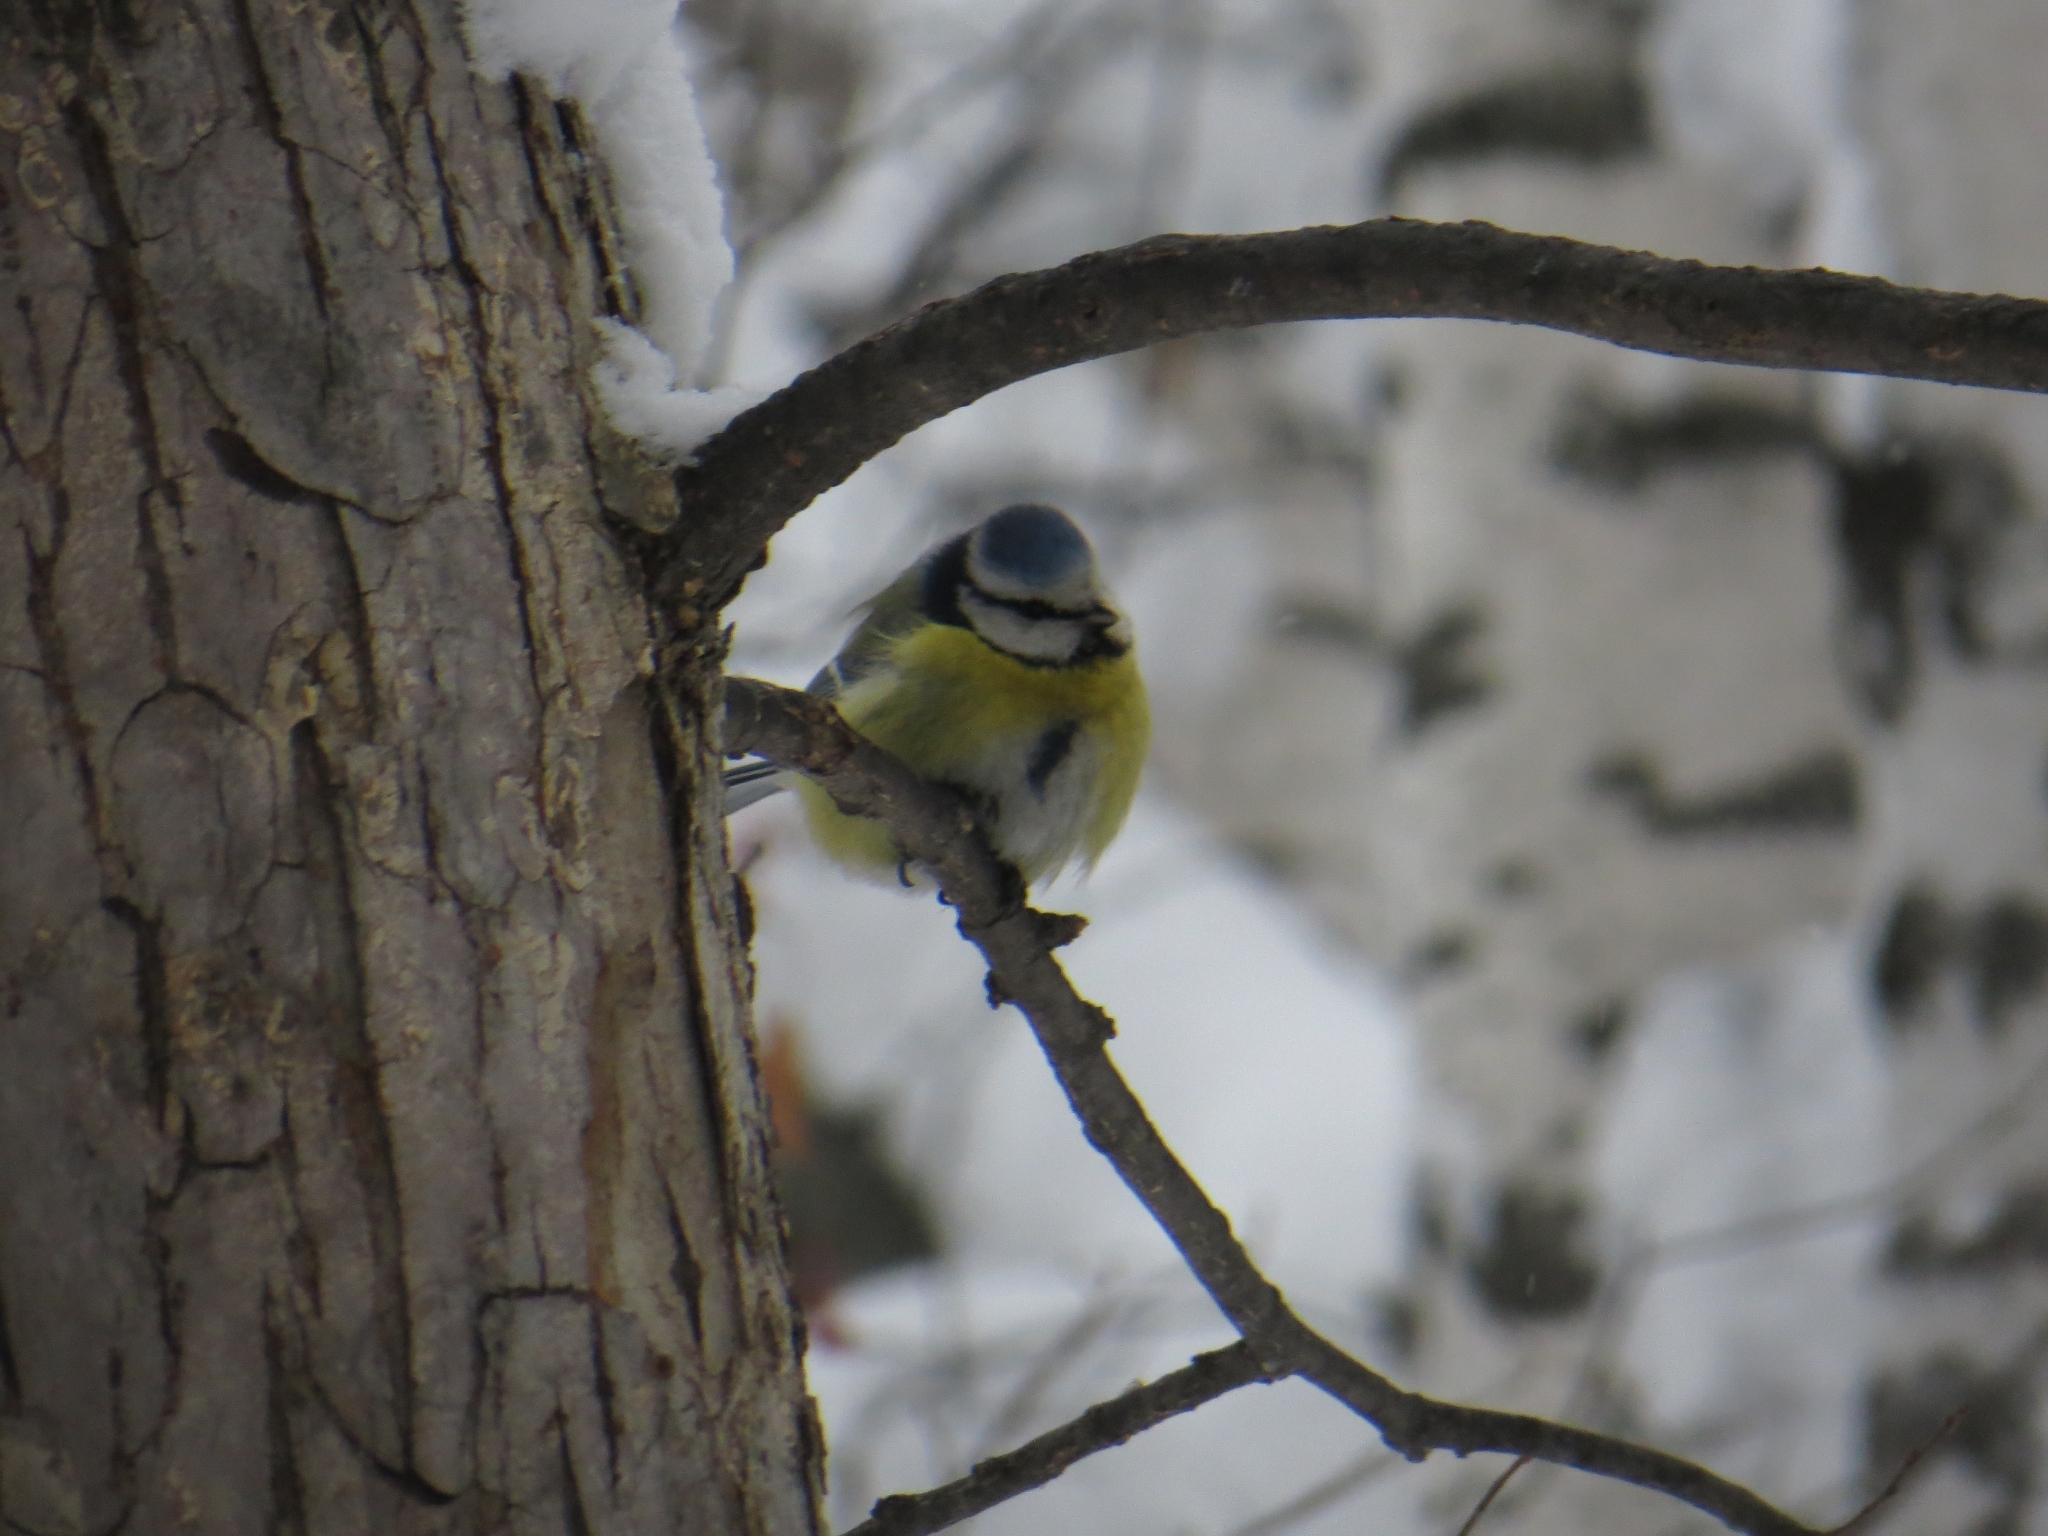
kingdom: Animalia
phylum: Chordata
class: Aves
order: Passeriformes
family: Paridae
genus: Cyanistes
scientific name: Cyanistes caeruleus
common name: Eurasian blue tit
